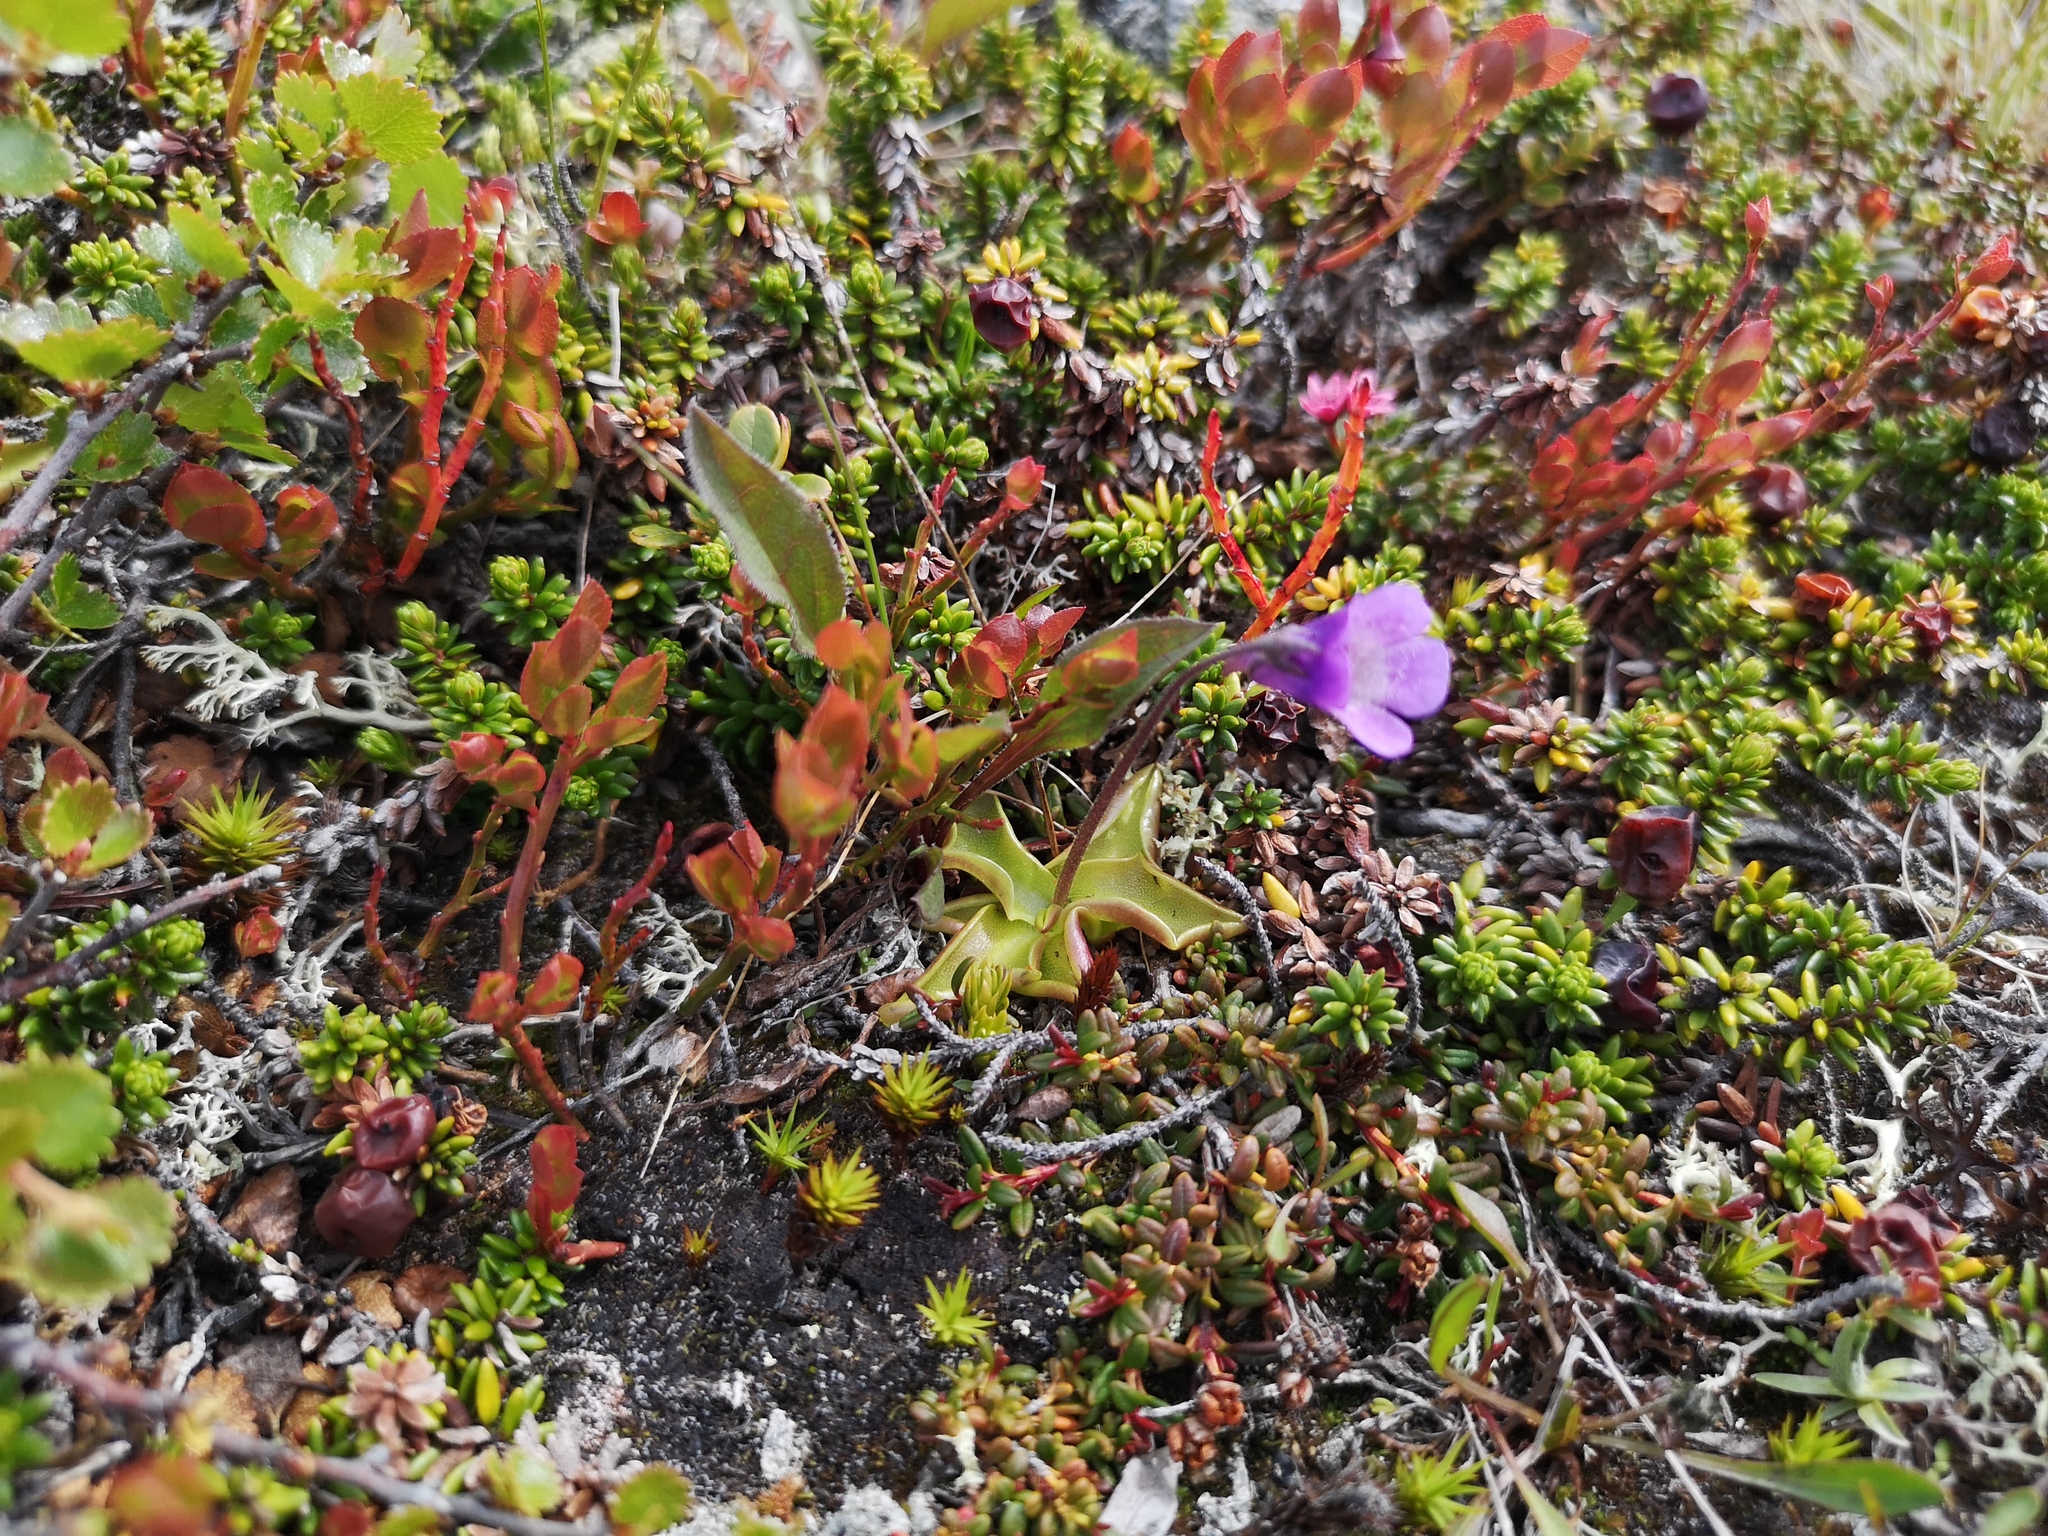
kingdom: Plantae
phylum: Tracheophyta
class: Magnoliopsida
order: Lamiales
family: Lentibulariaceae
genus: Pinguicula
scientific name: Pinguicula vulgaris
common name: Common butterwort
